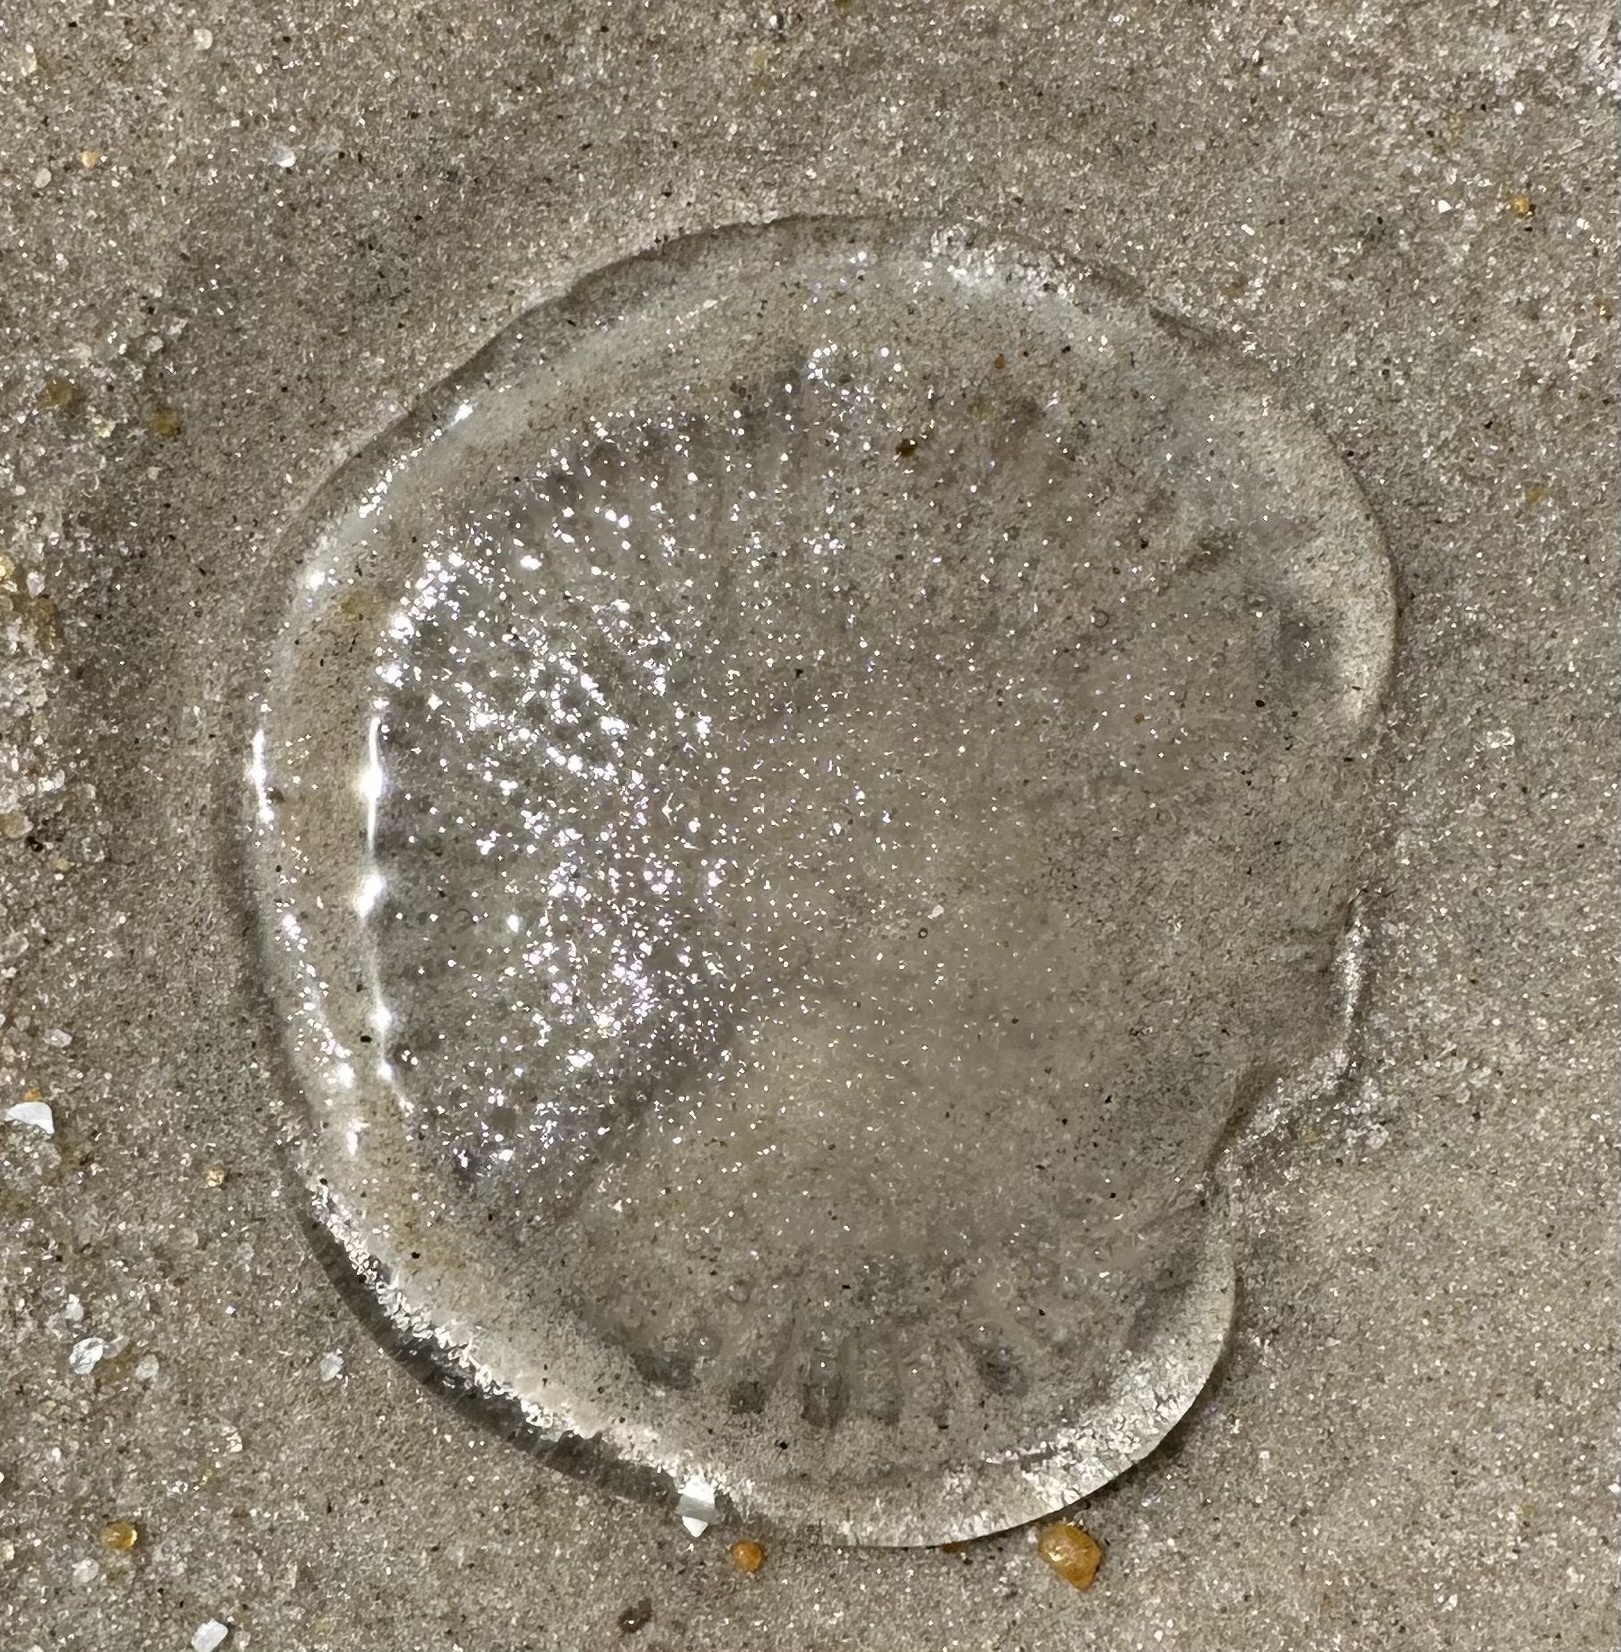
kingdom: Animalia
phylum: Cnidaria
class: Hydrozoa
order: Leptothecata
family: Aequoreidae
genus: Rhacostoma
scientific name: Rhacostoma atlanticum
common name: Lined water jelly
